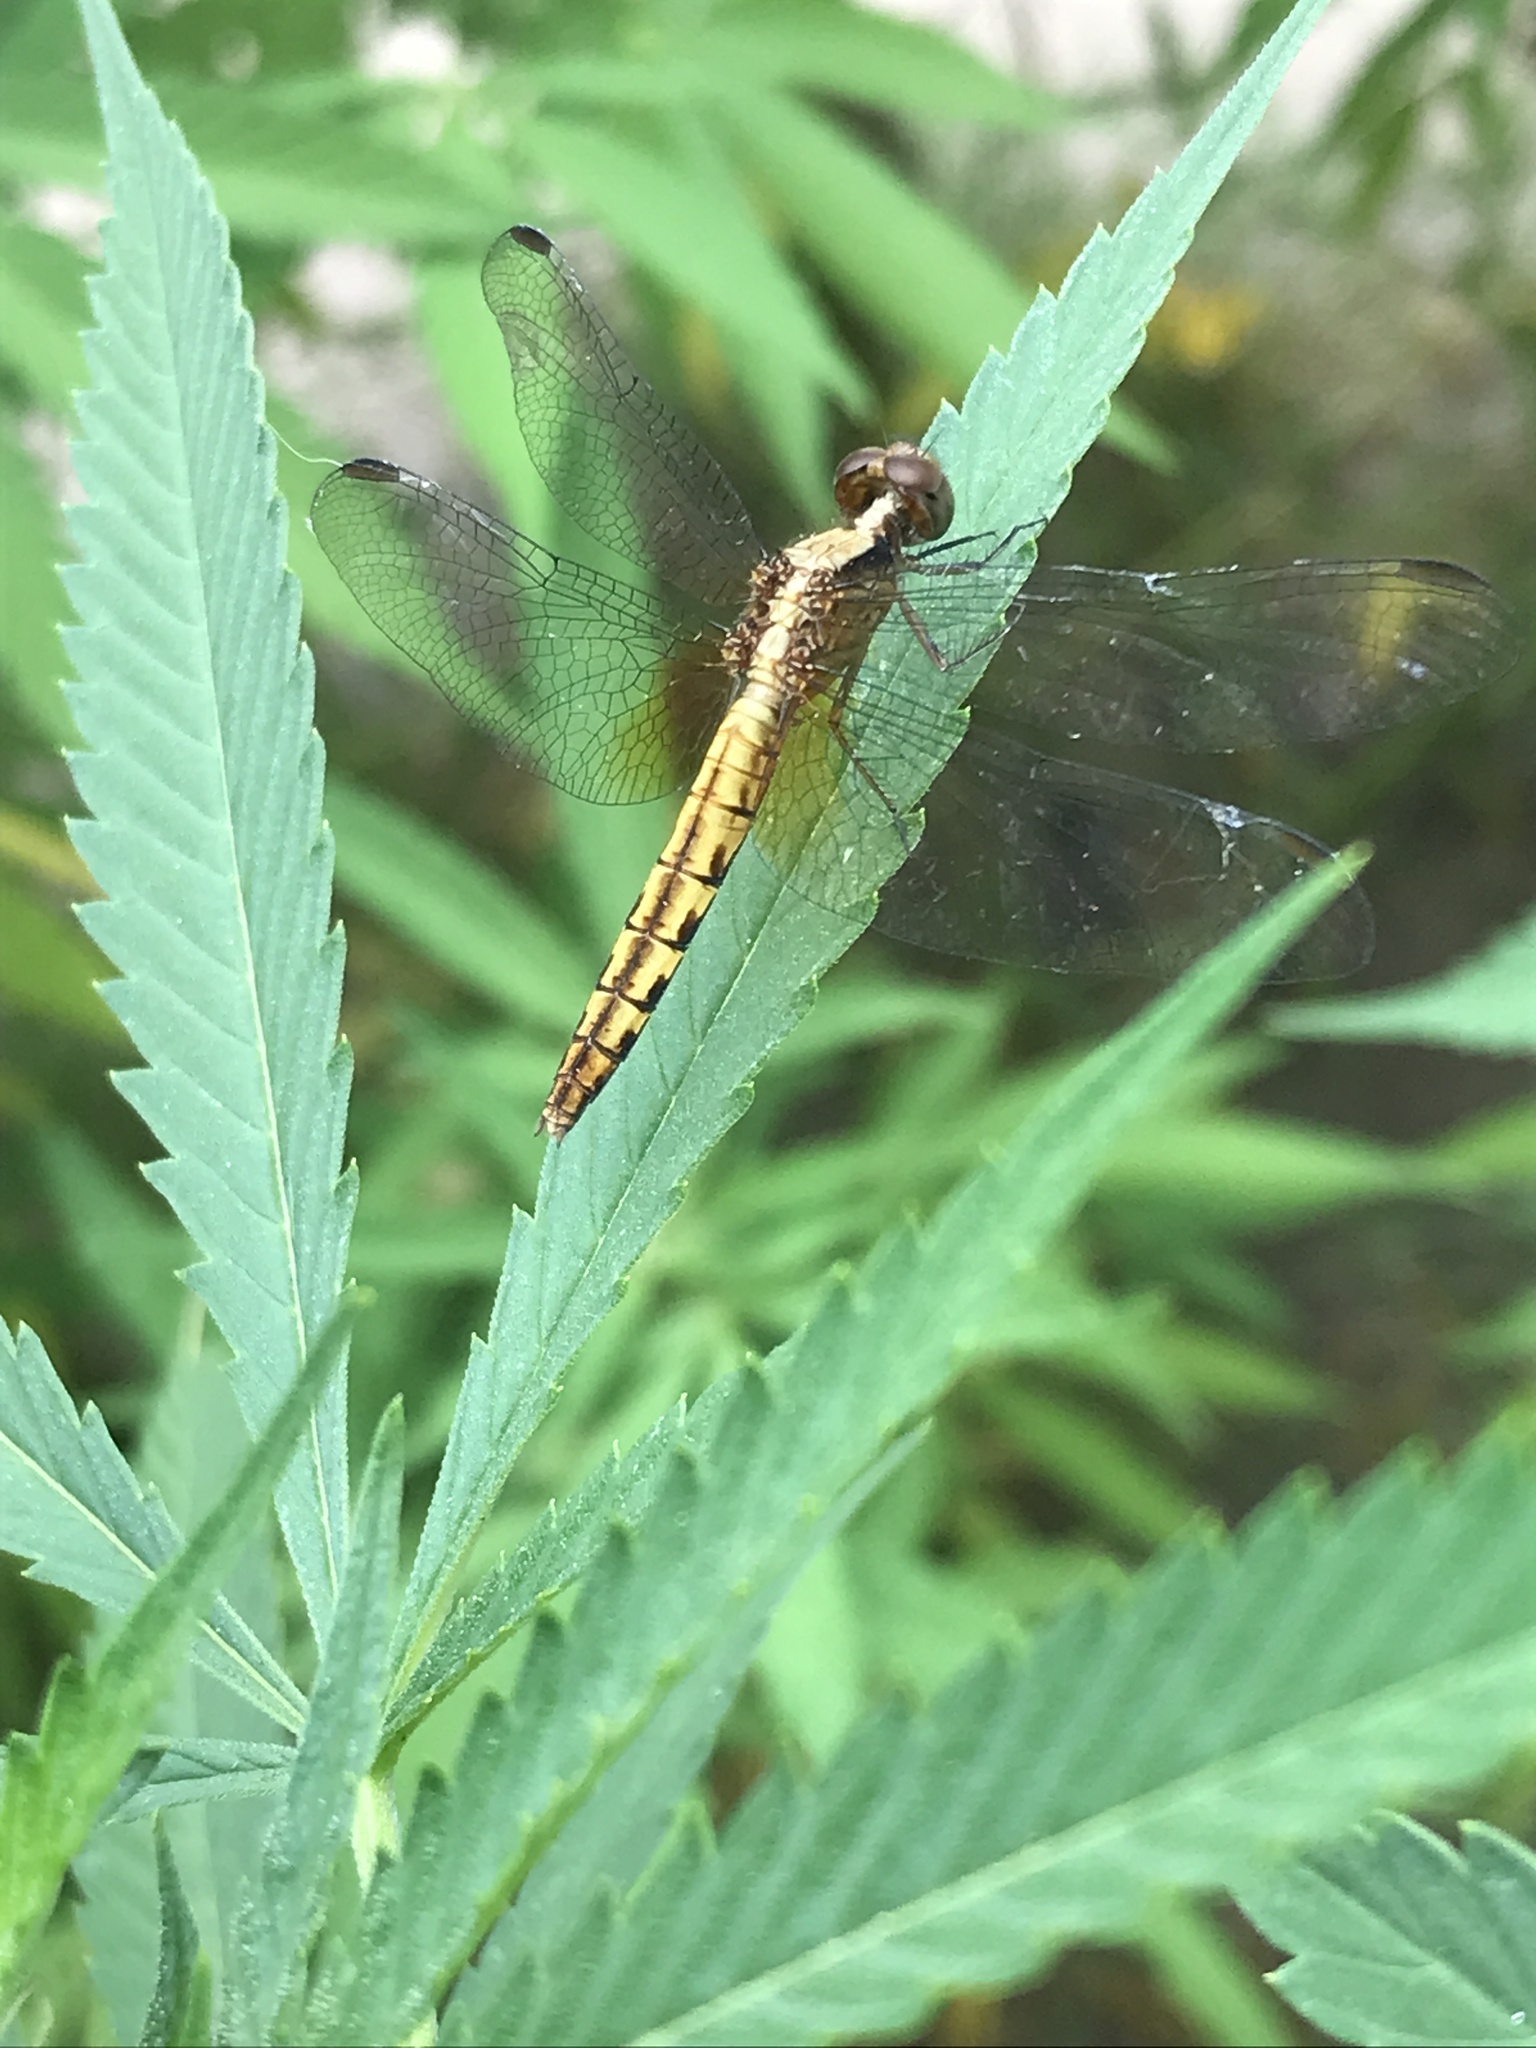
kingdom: Animalia
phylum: Arthropoda
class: Insecta
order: Odonata
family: Libellulidae
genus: Erythrodiplax
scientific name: Erythrodiplax media
